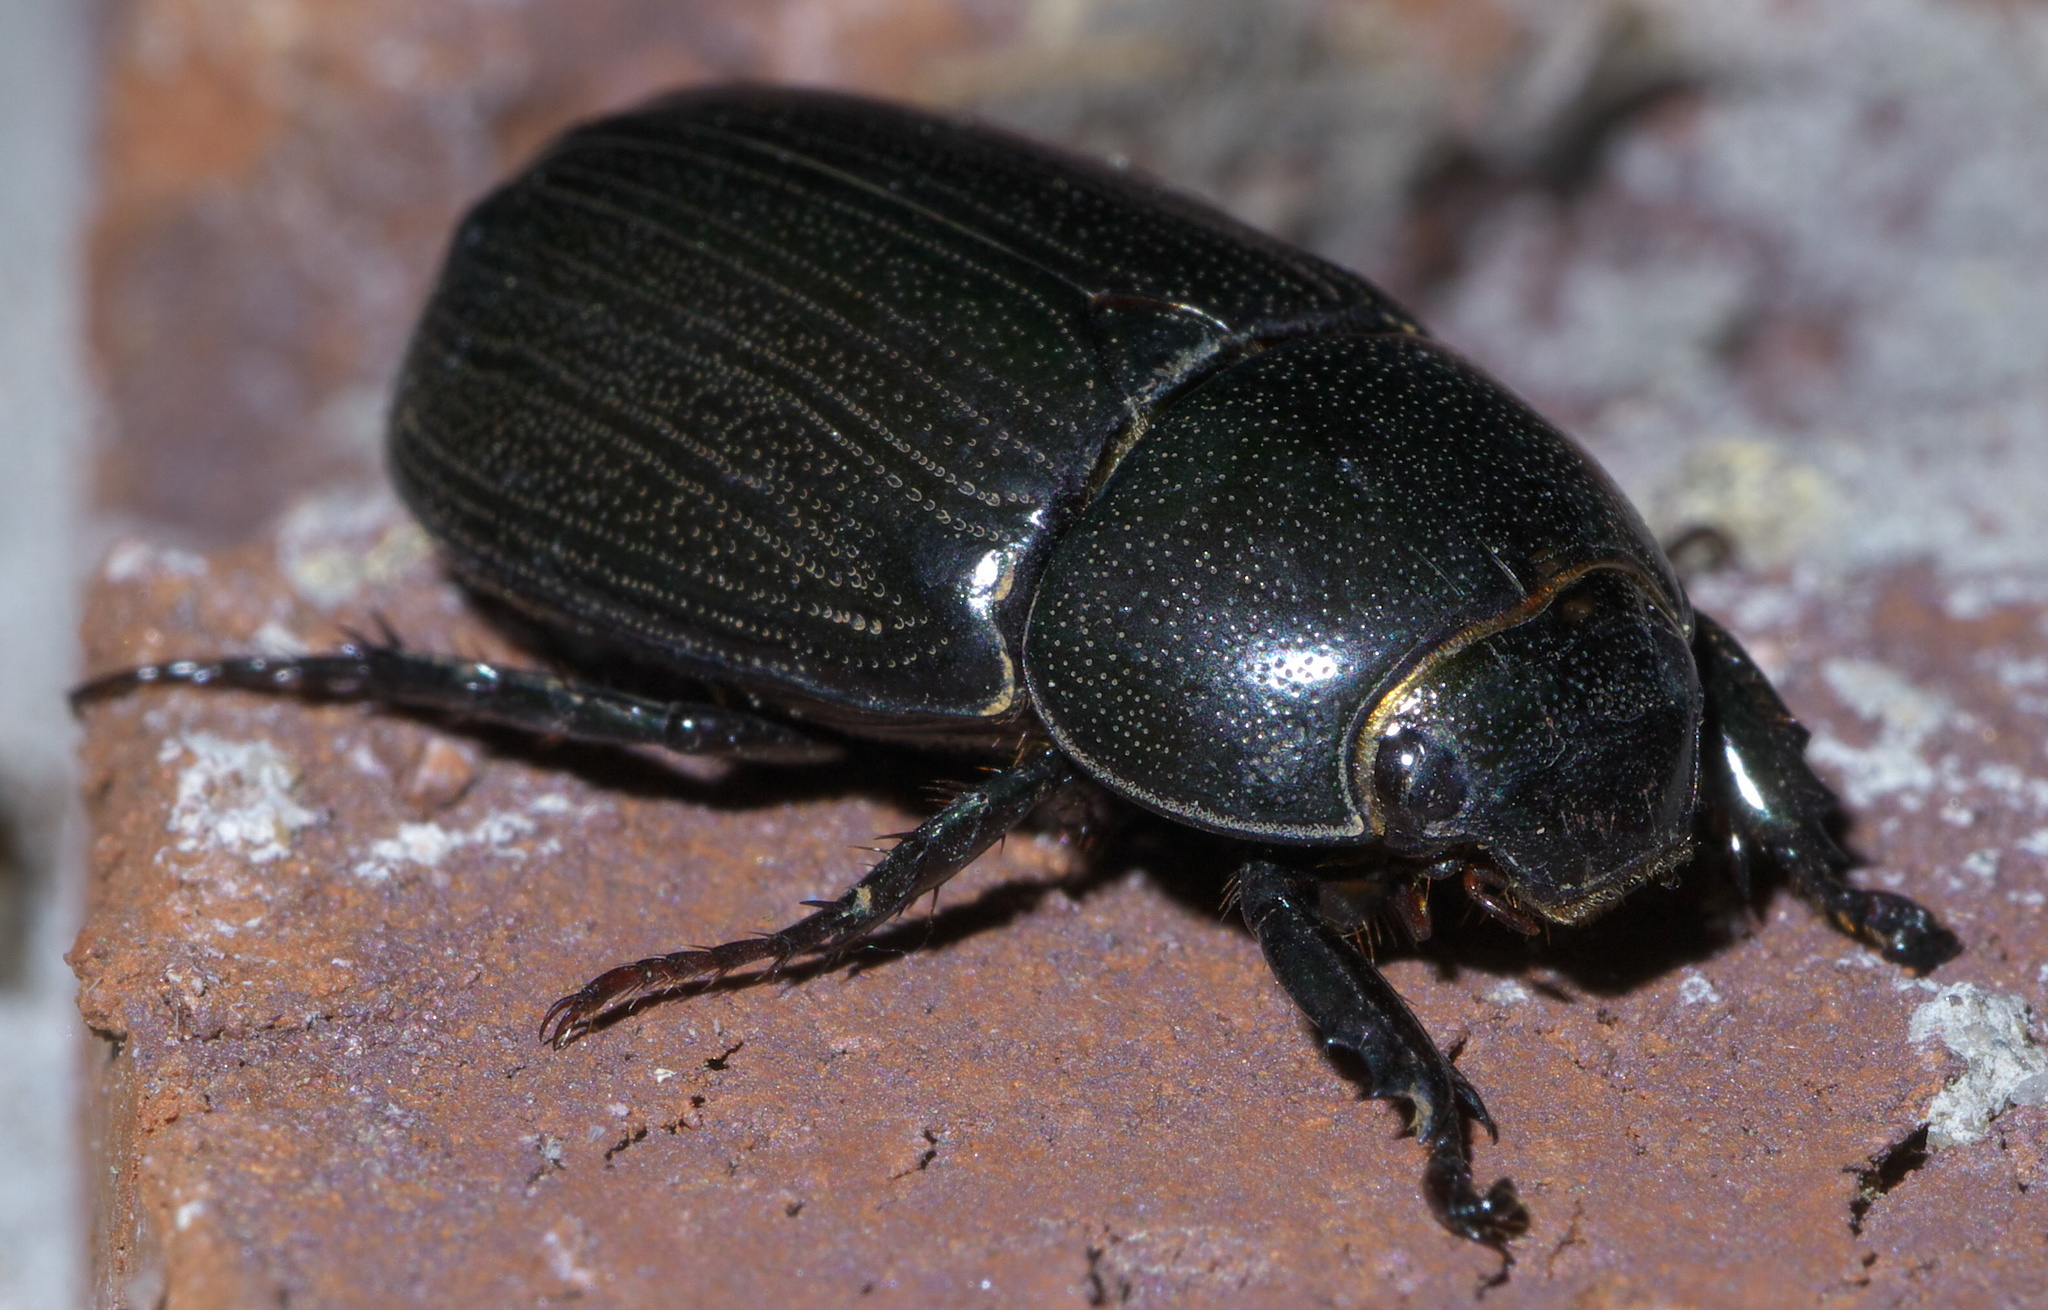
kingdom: Animalia
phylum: Arthropoda
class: Insecta
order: Coleoptera
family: Scarabaeidae
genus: Dyscinetus
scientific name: Dyscinetus morator
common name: Rice beetle
